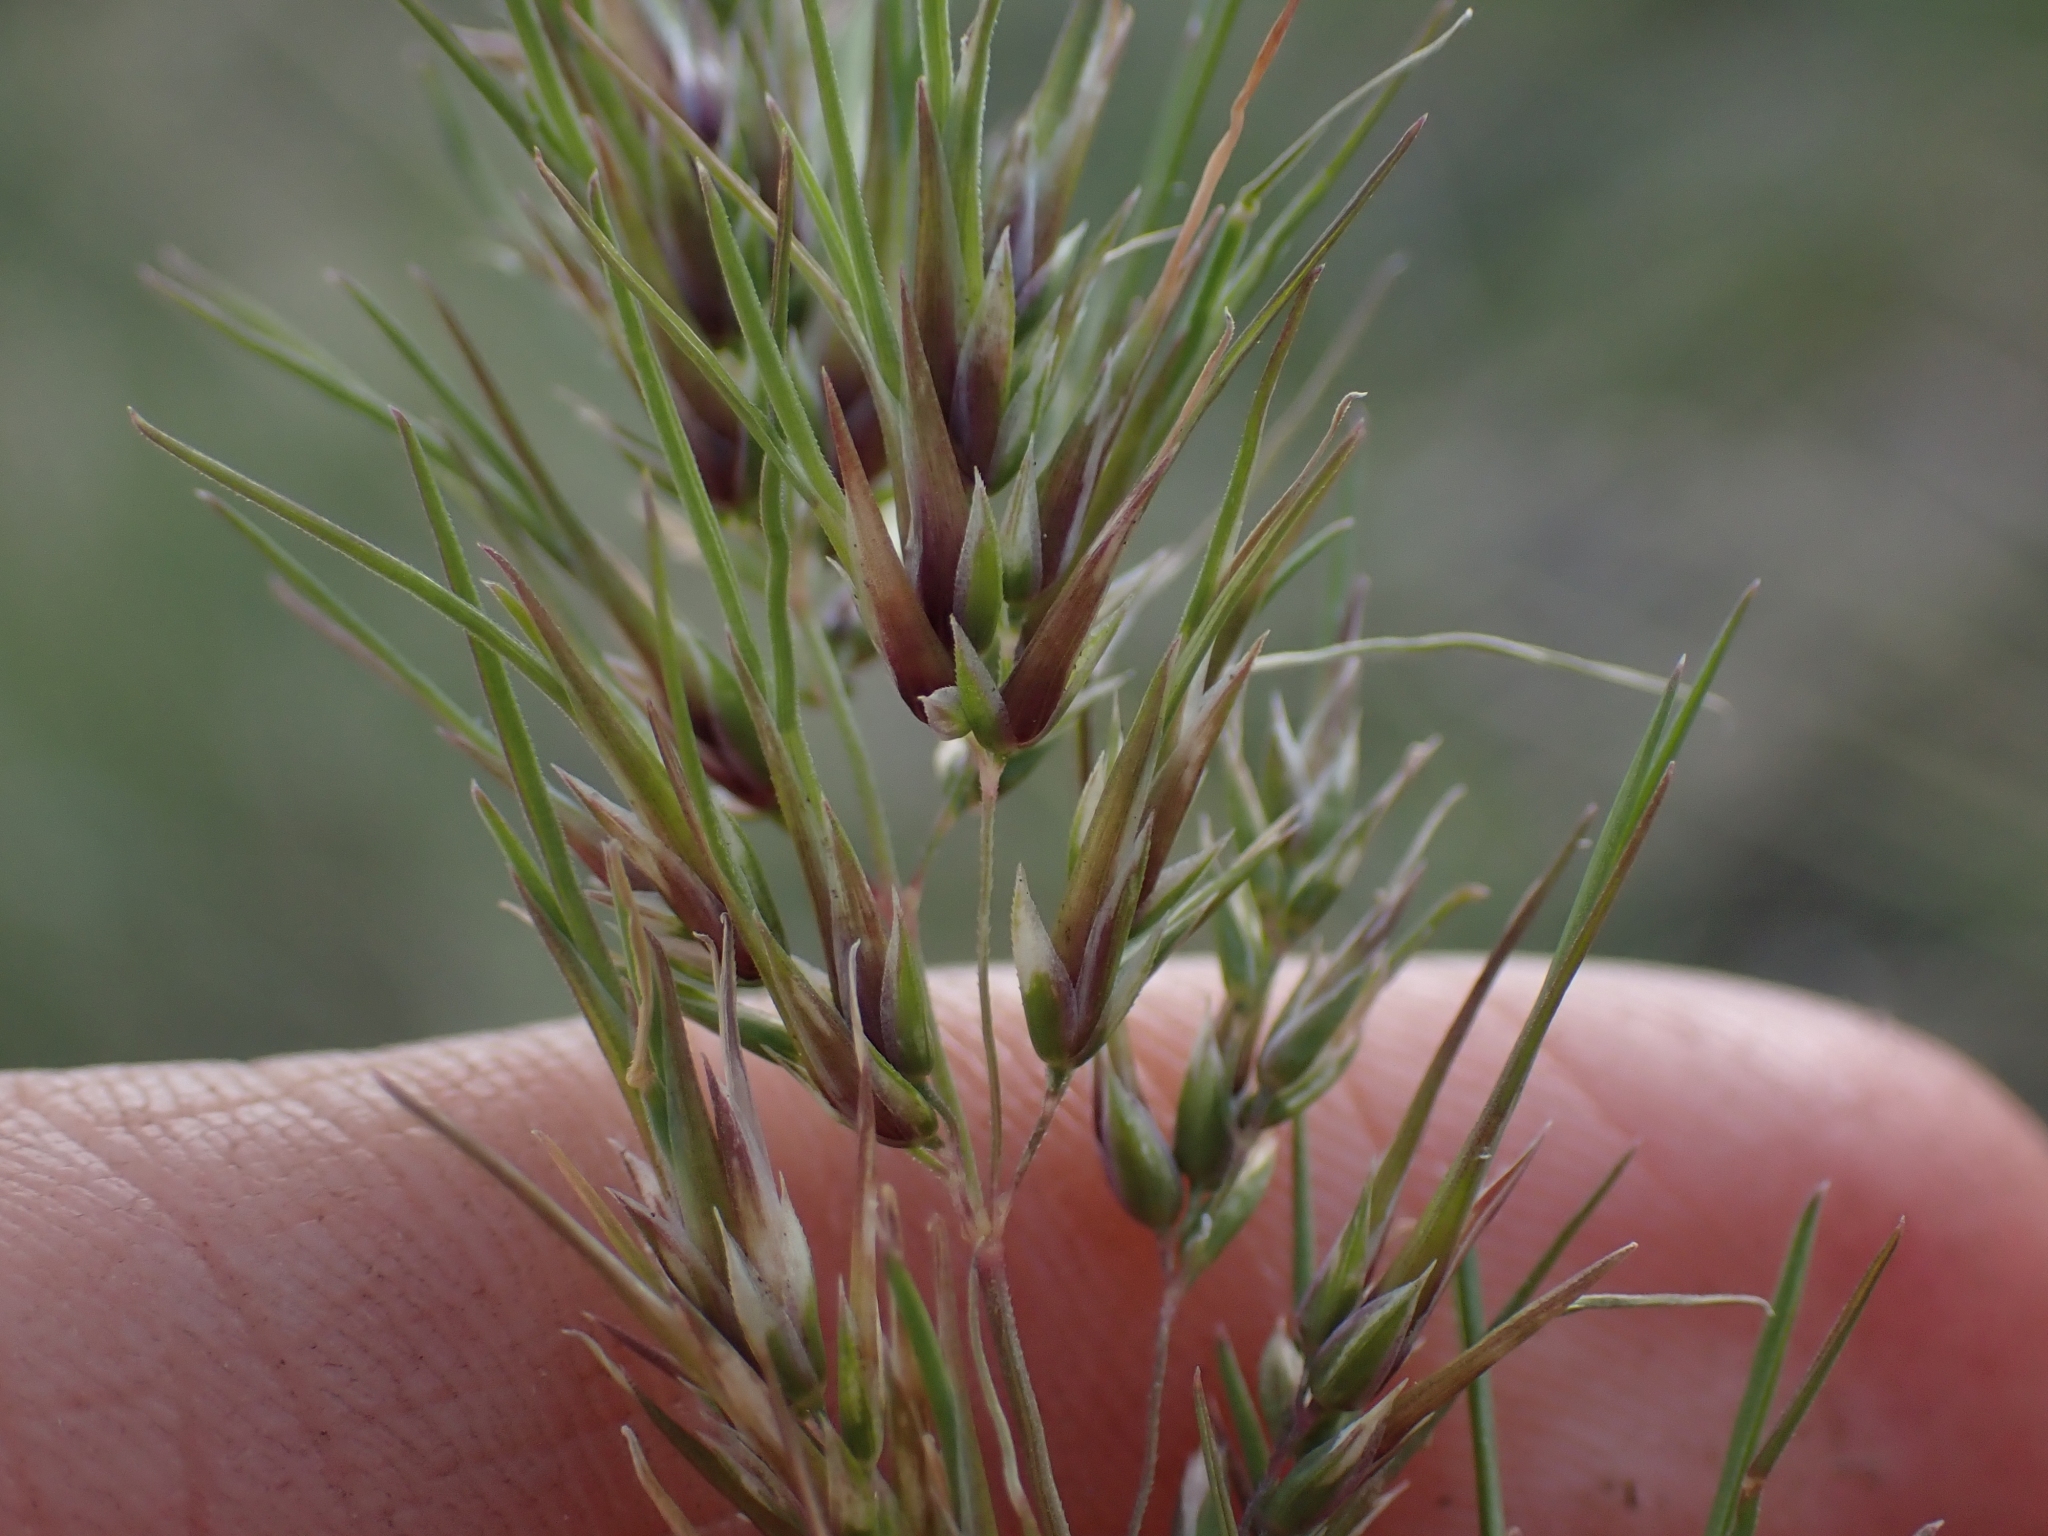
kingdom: Plantae
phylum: Tracheophyta
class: Liliopsida
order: Poales
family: Poaceae
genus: Poa
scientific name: Poa bulbosa
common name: Bulbous bluegrass
